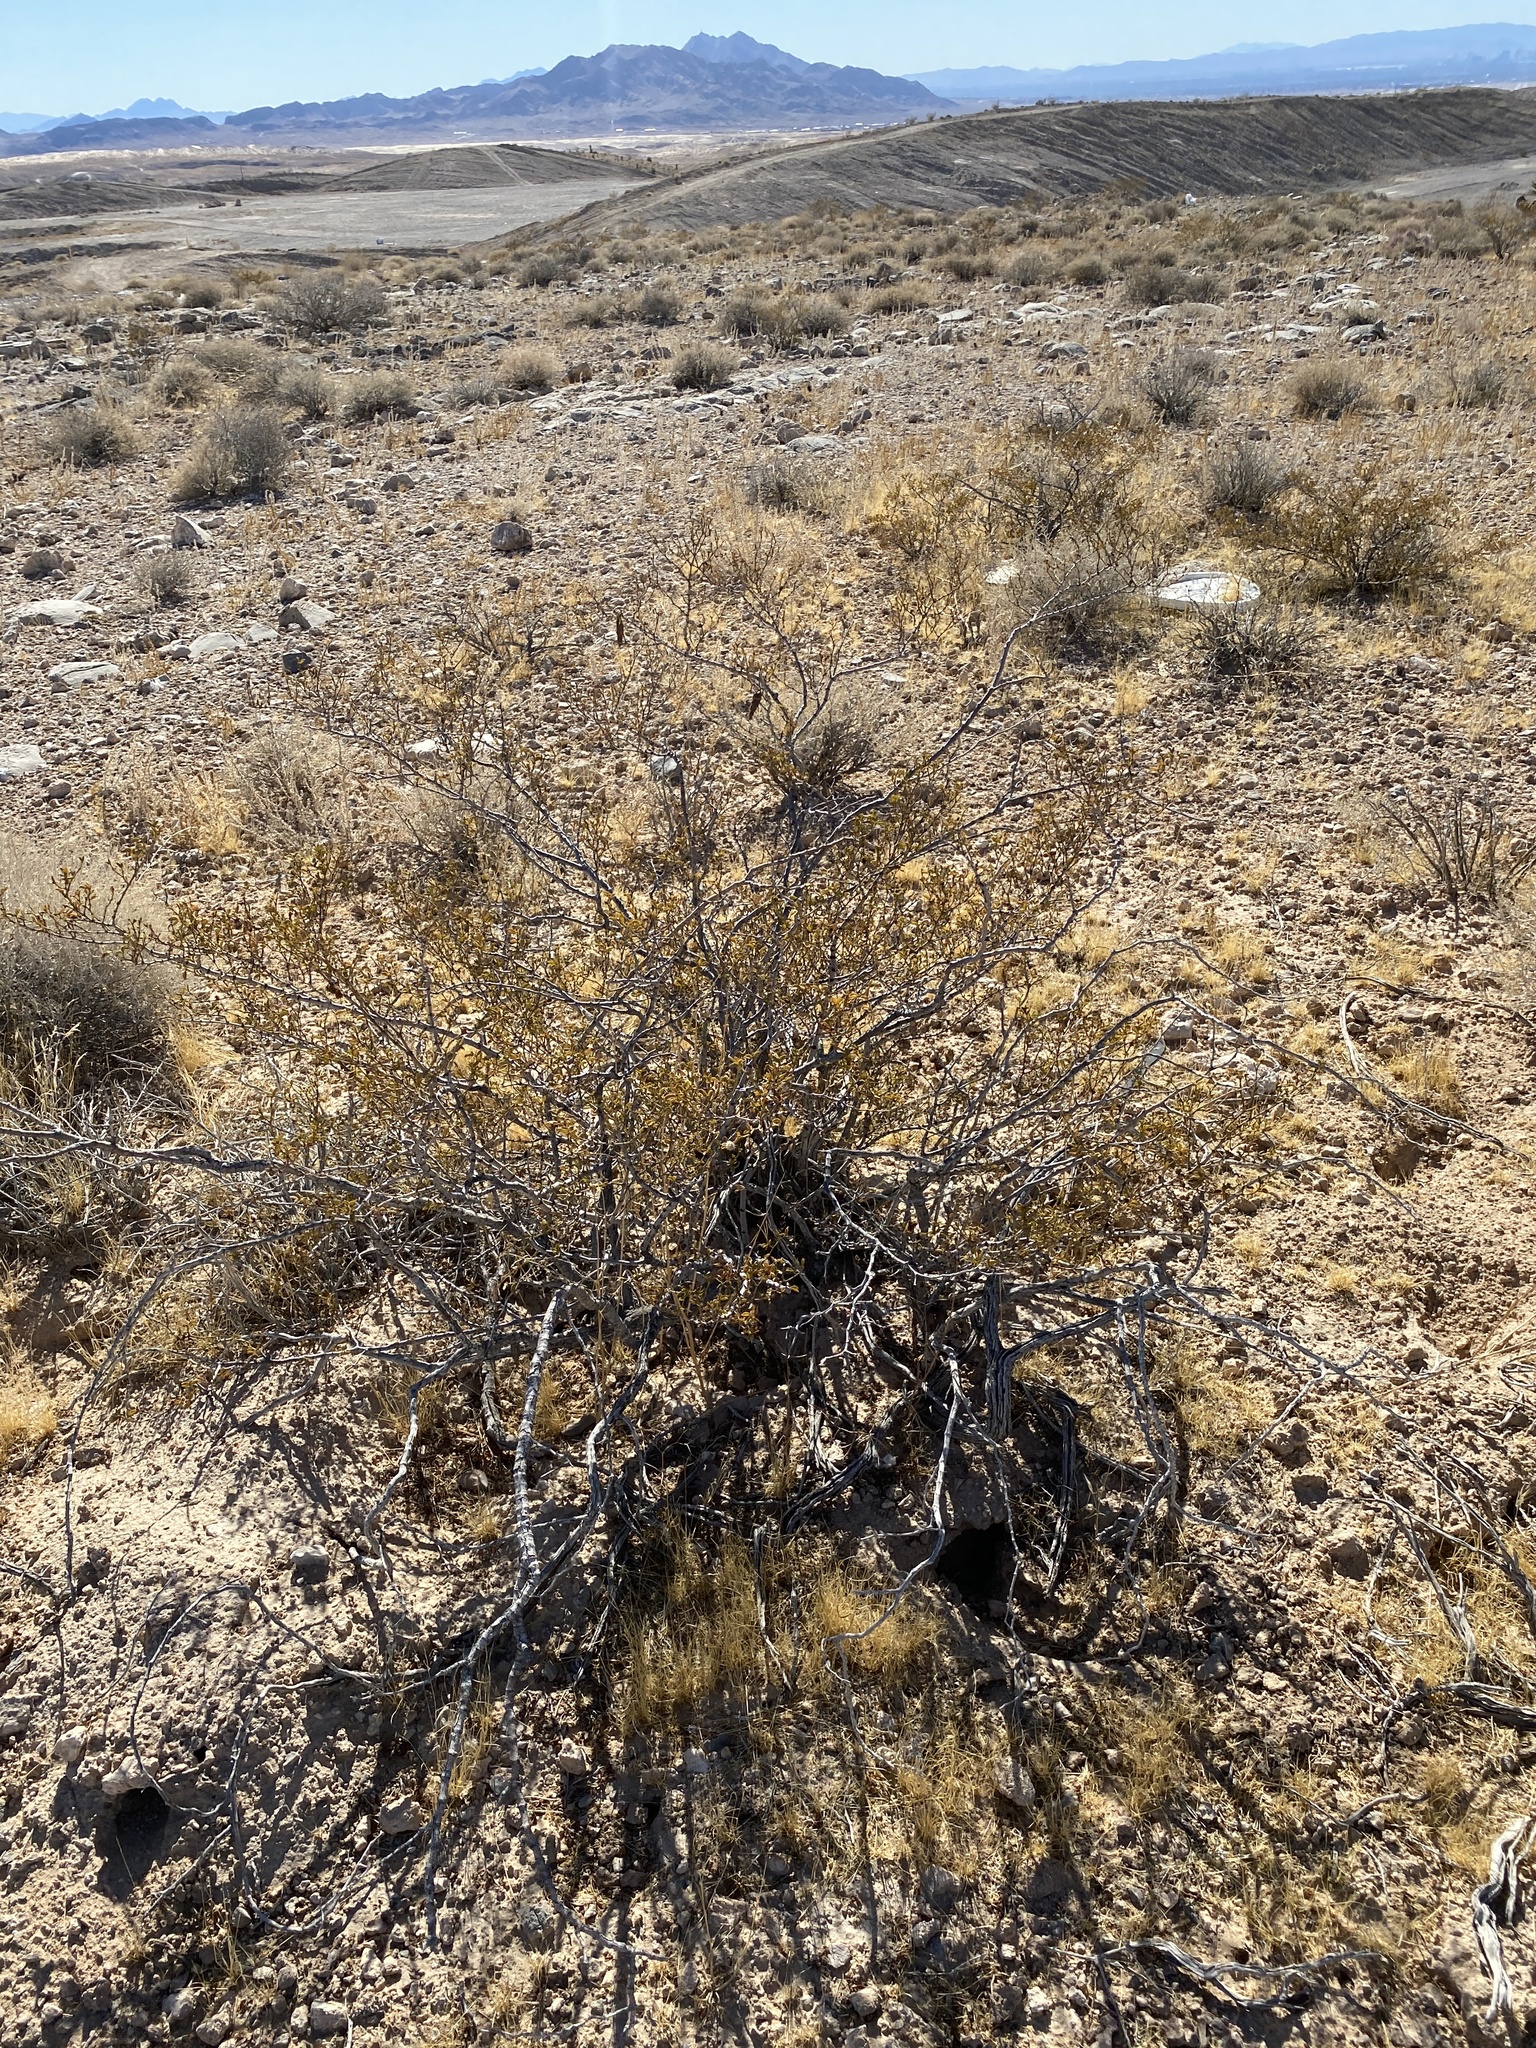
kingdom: Plantae
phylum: Tracheophyta
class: Magnoliopsida
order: Zygophyllales
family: Zygophyllaceae
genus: Larrea
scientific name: Larrea tridentata
